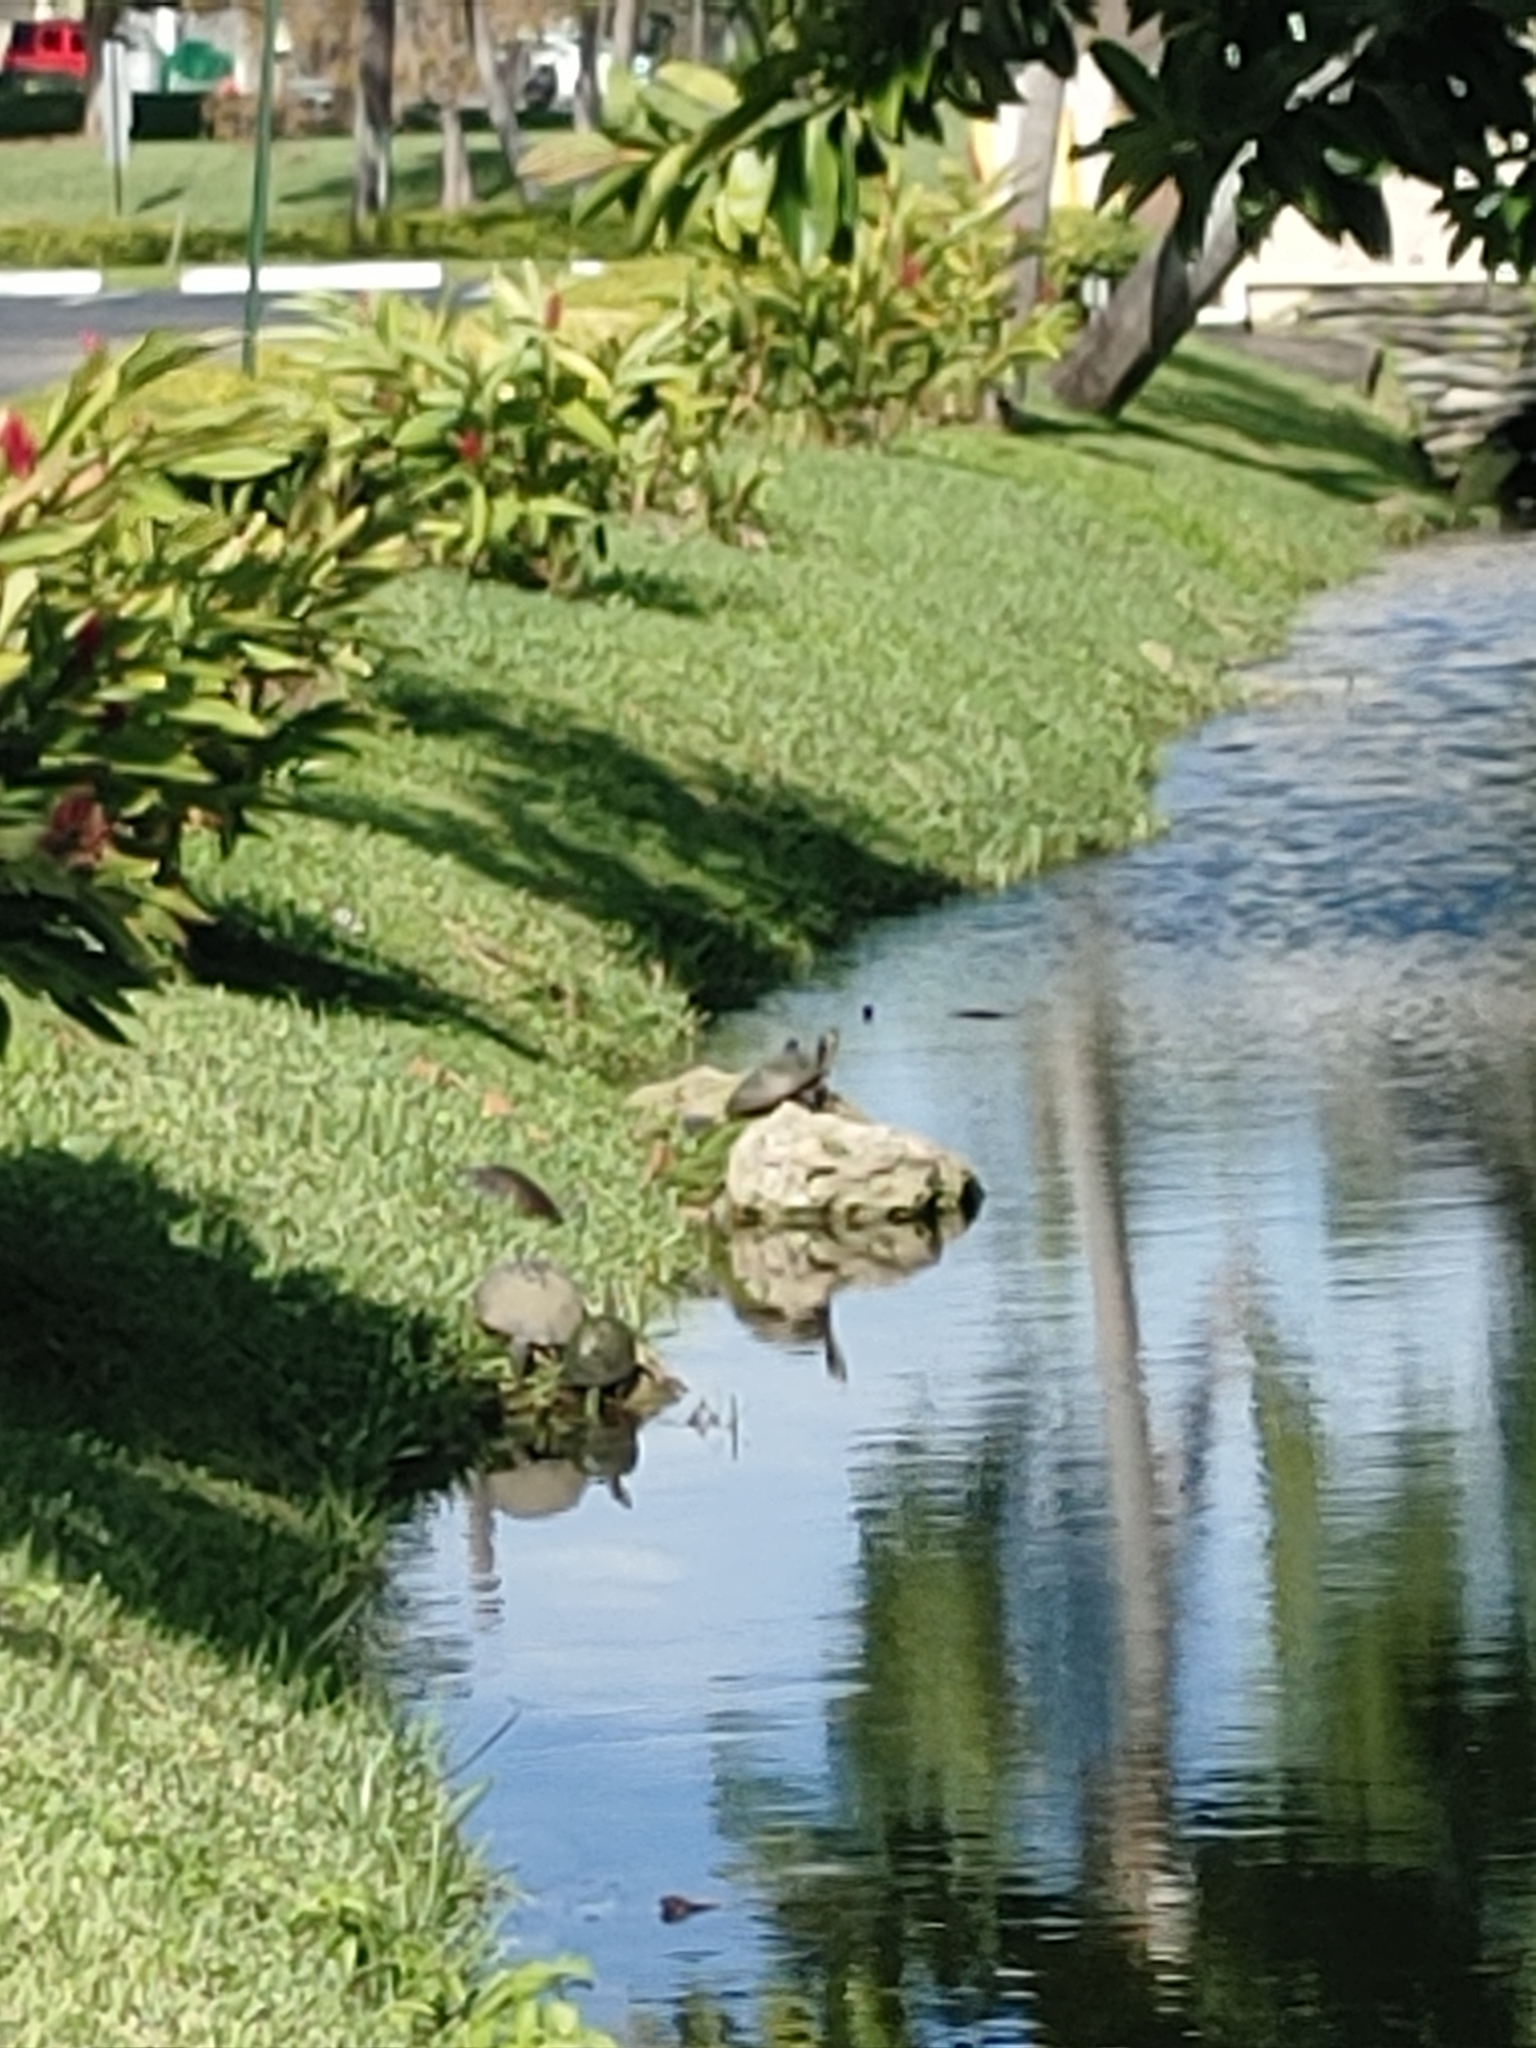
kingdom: Animalia
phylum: Chordata
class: Testudines
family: Emydidae
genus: Pseudemys
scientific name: Pseudemys peninsularis
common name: Peninsula cooter
